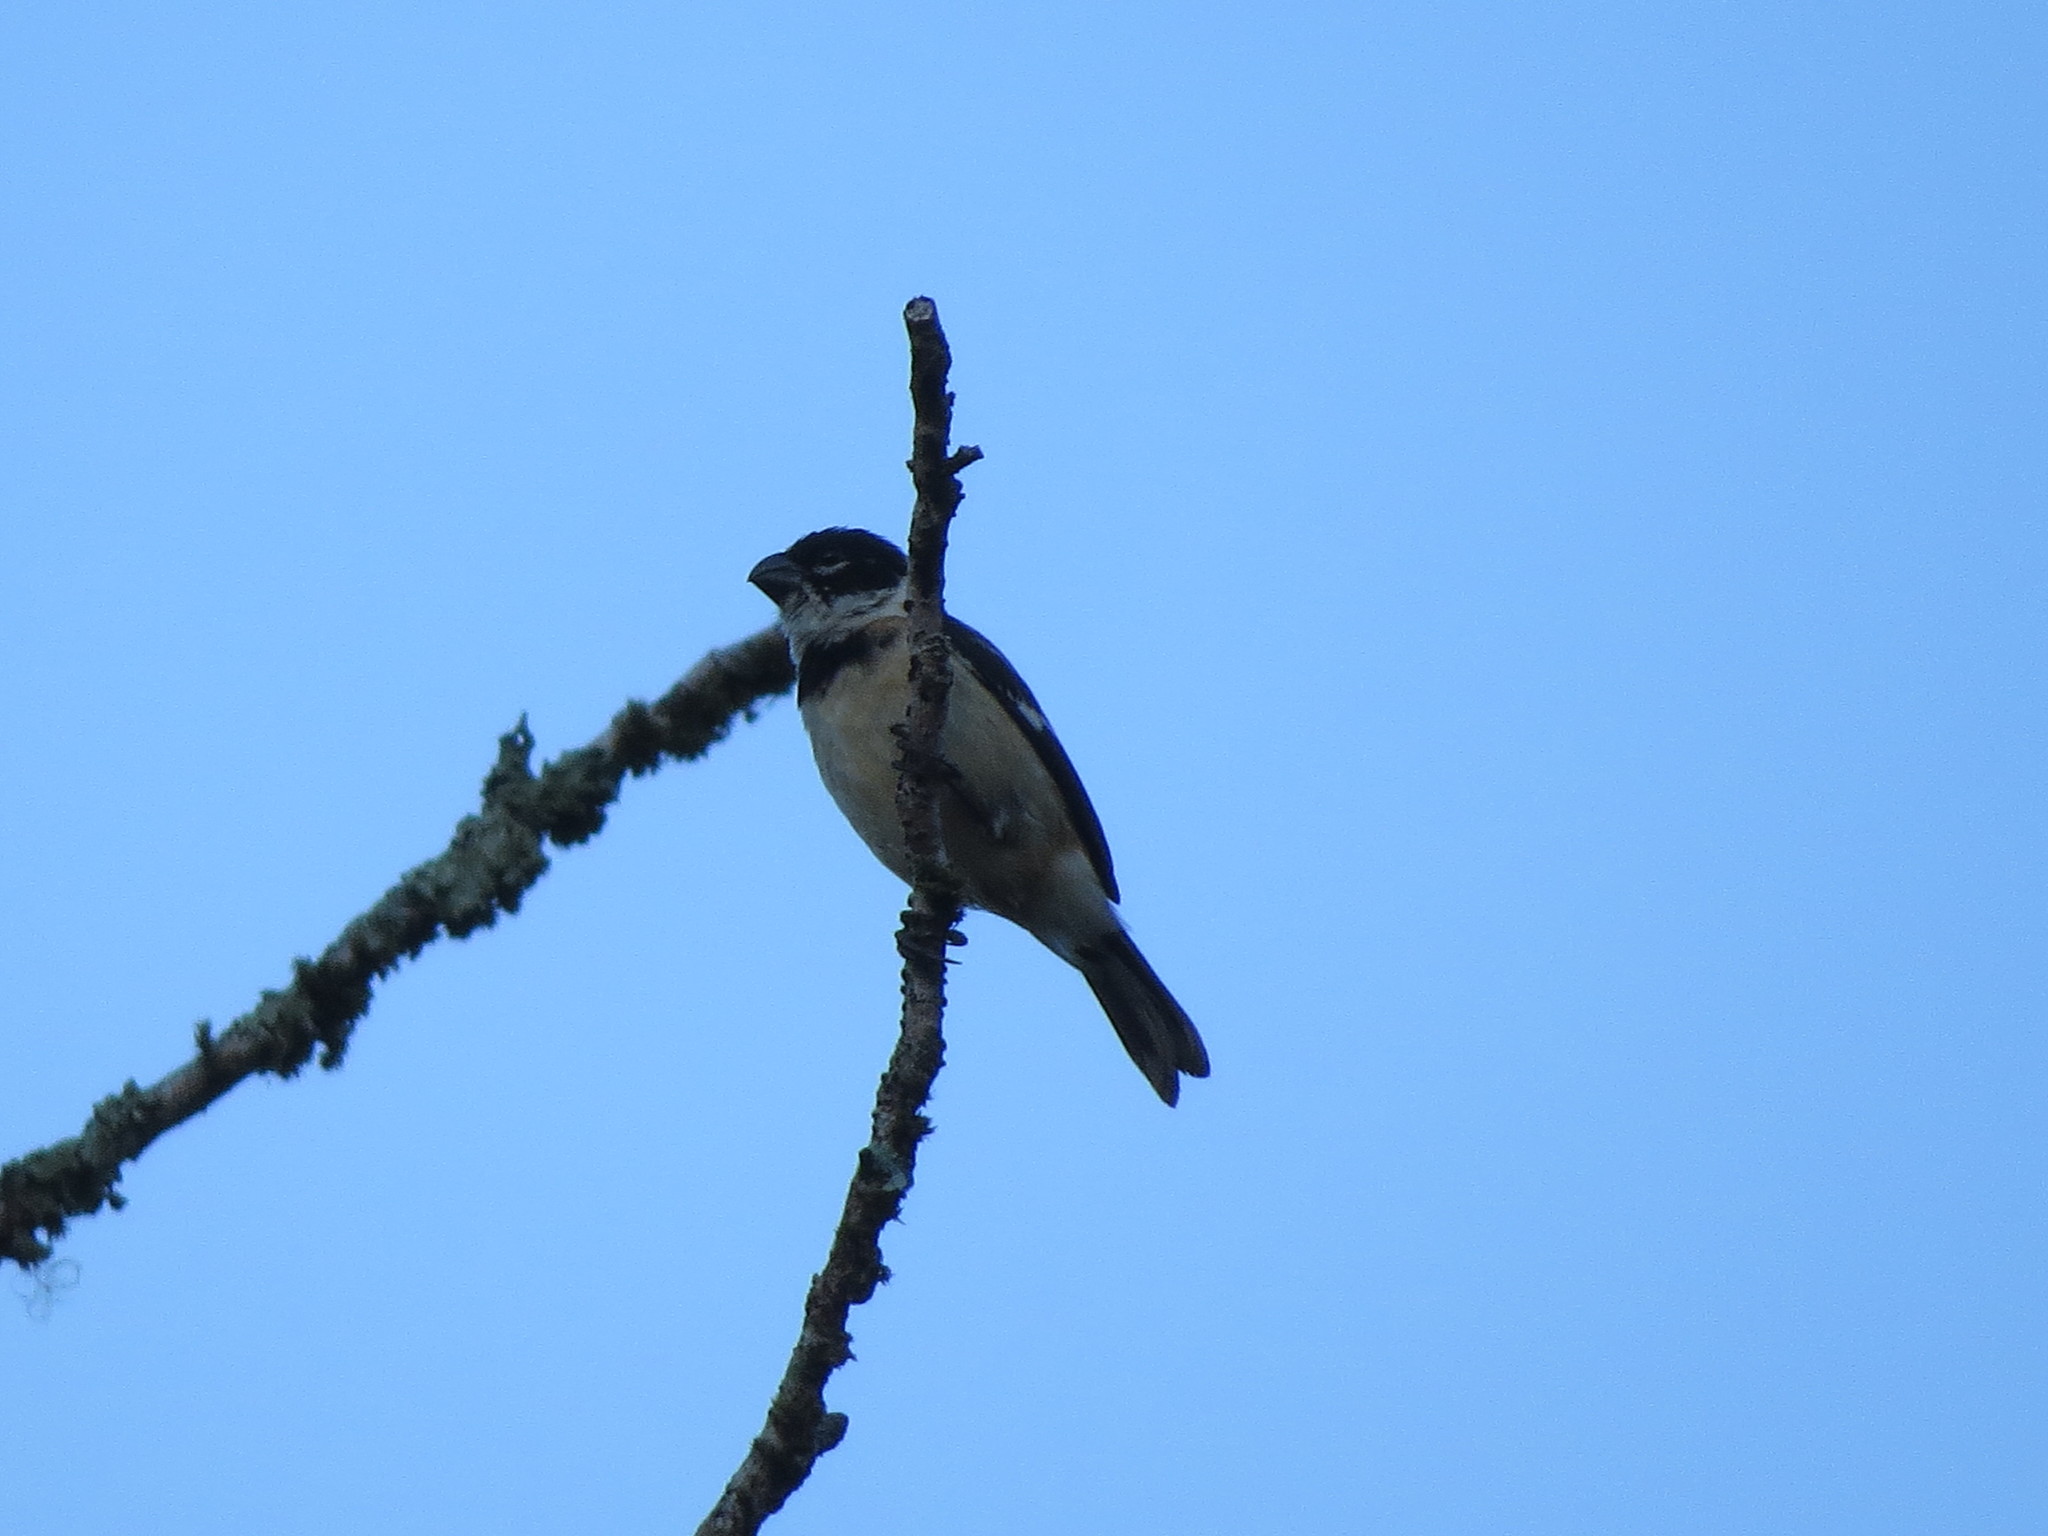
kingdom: Animalia
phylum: Chordata
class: Aves
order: Passeriformes
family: Thraupidae
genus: Sporophila
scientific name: Sporophila morelleti
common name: Morelet's seedeater
